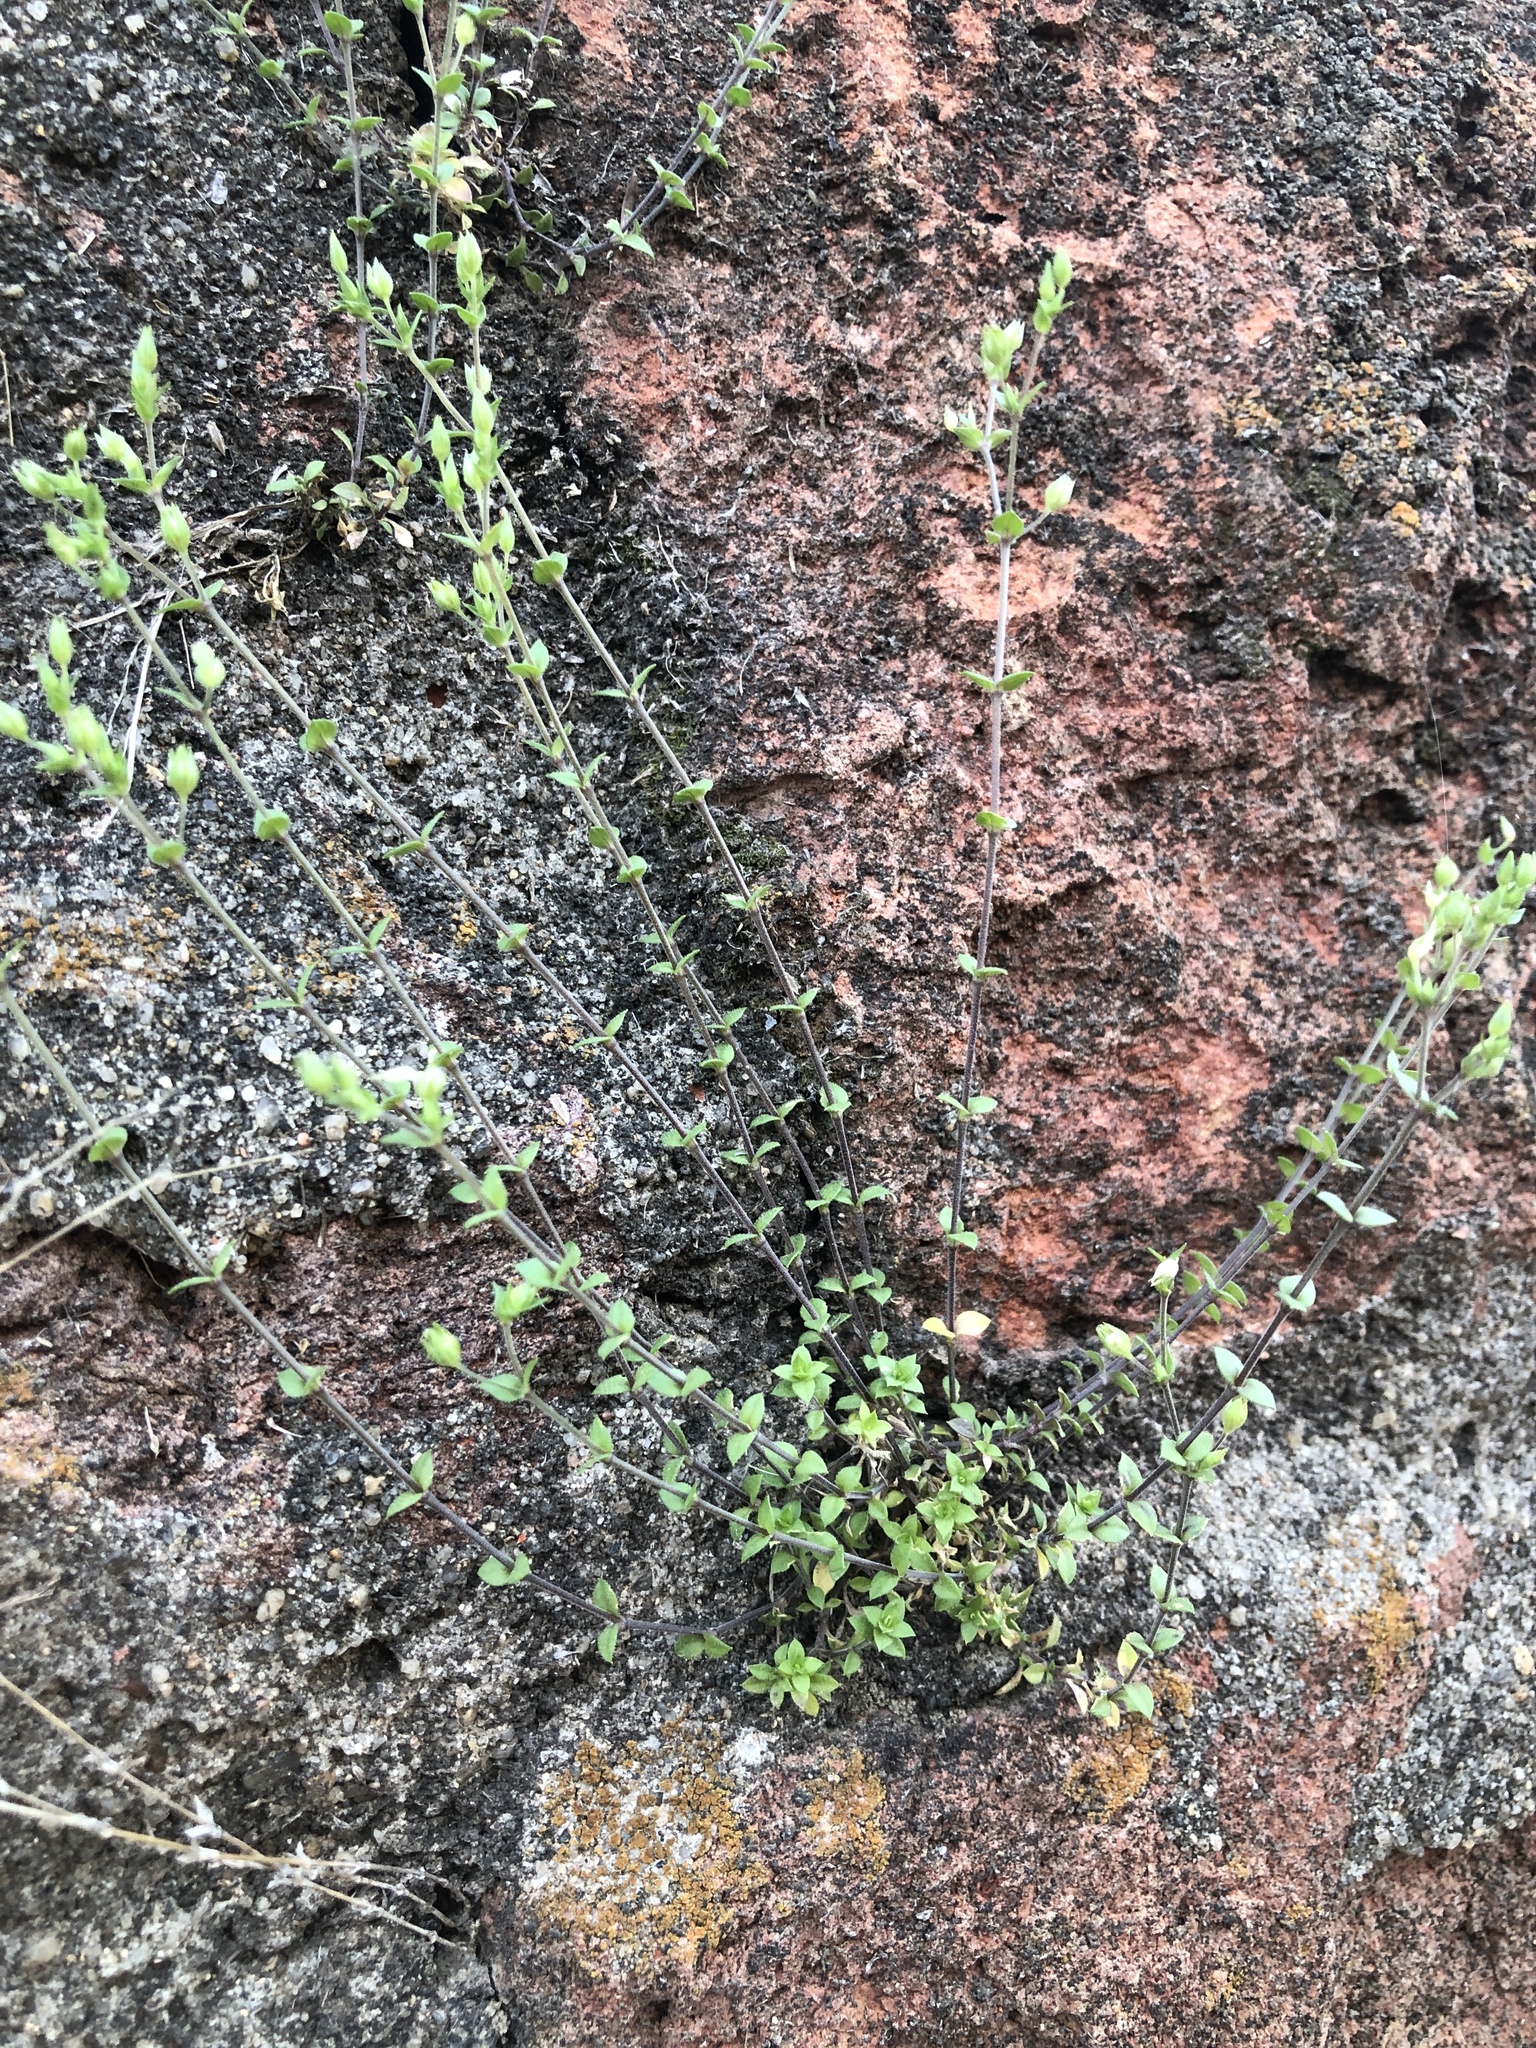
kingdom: Plantae
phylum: Tracheophyta
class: Magnoliopsida
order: Caryophyllales
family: Caryophyllaceae
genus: Arenaria
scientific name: Arenaria serpyllifolia
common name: Thyme-leaved sandwort
